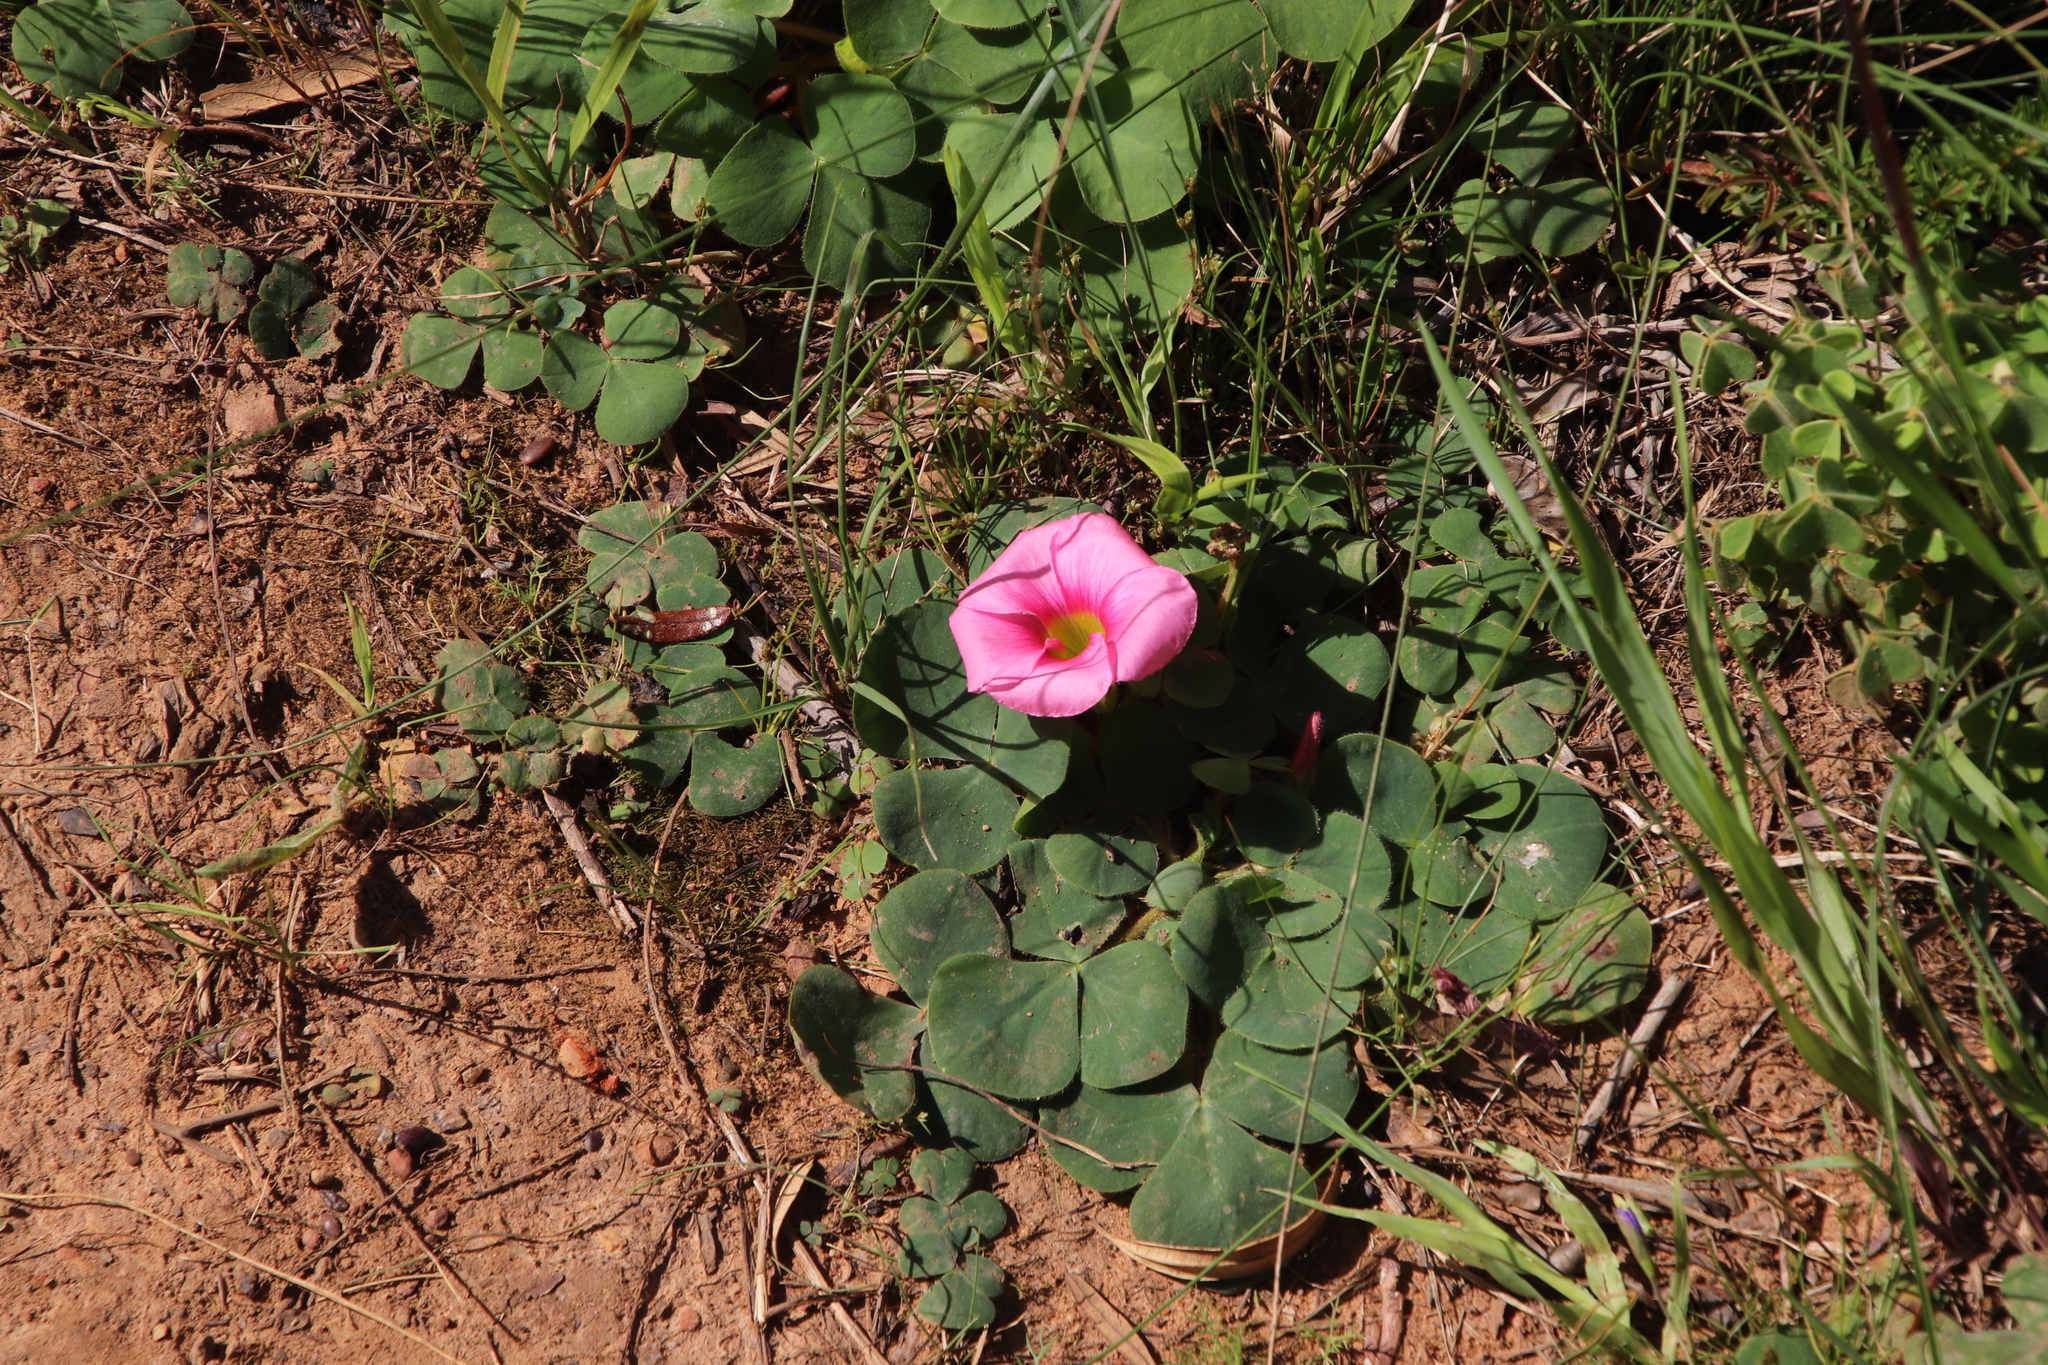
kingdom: Plantae
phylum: Tracheophyta
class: Magnoliopsida
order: Oxalidales
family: Oxalidaceae
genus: Oxalis
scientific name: Oxalis purpurea
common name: Purple woodsorrel
